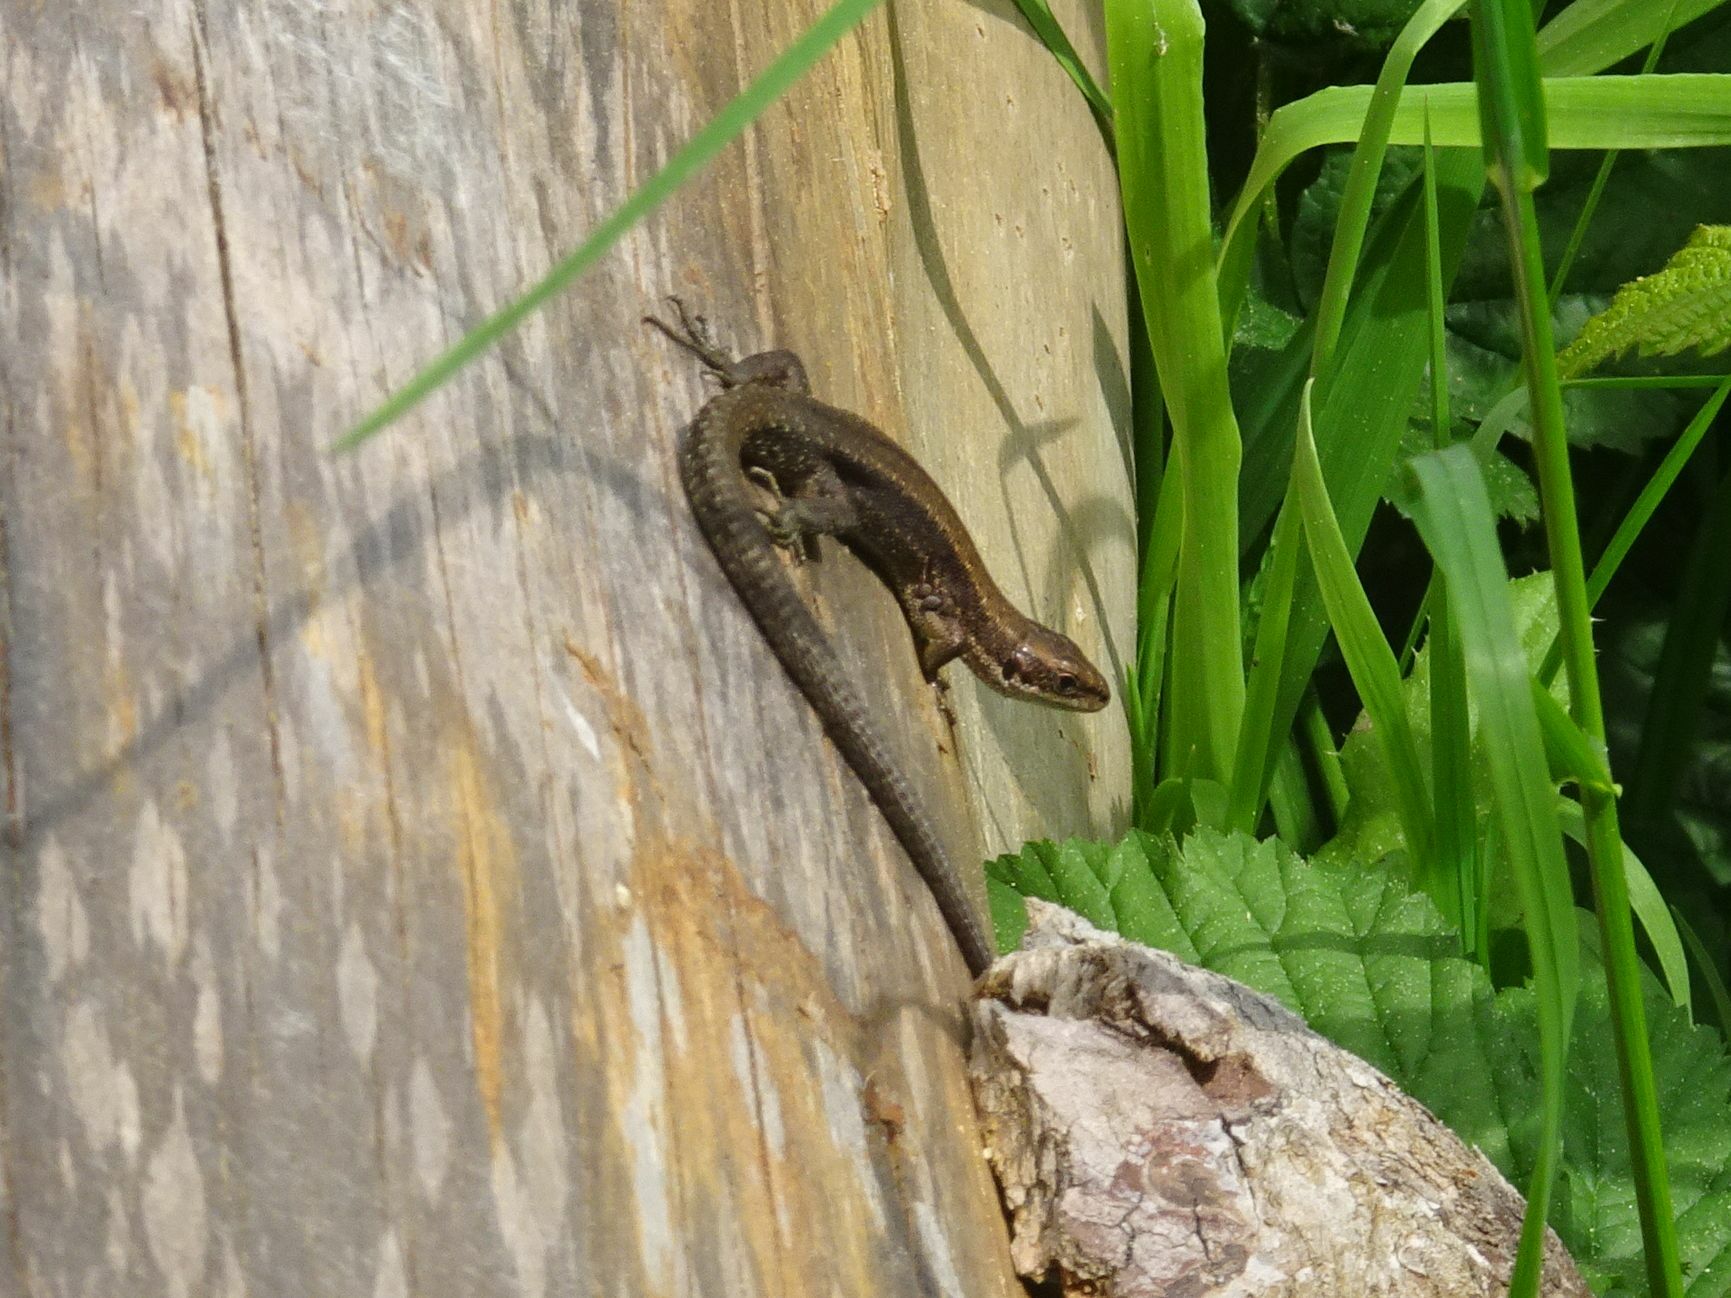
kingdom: Animalia
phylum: Chordata
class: Squamata
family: Lacertidae
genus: Zootoca
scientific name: Zootoca vivipara
